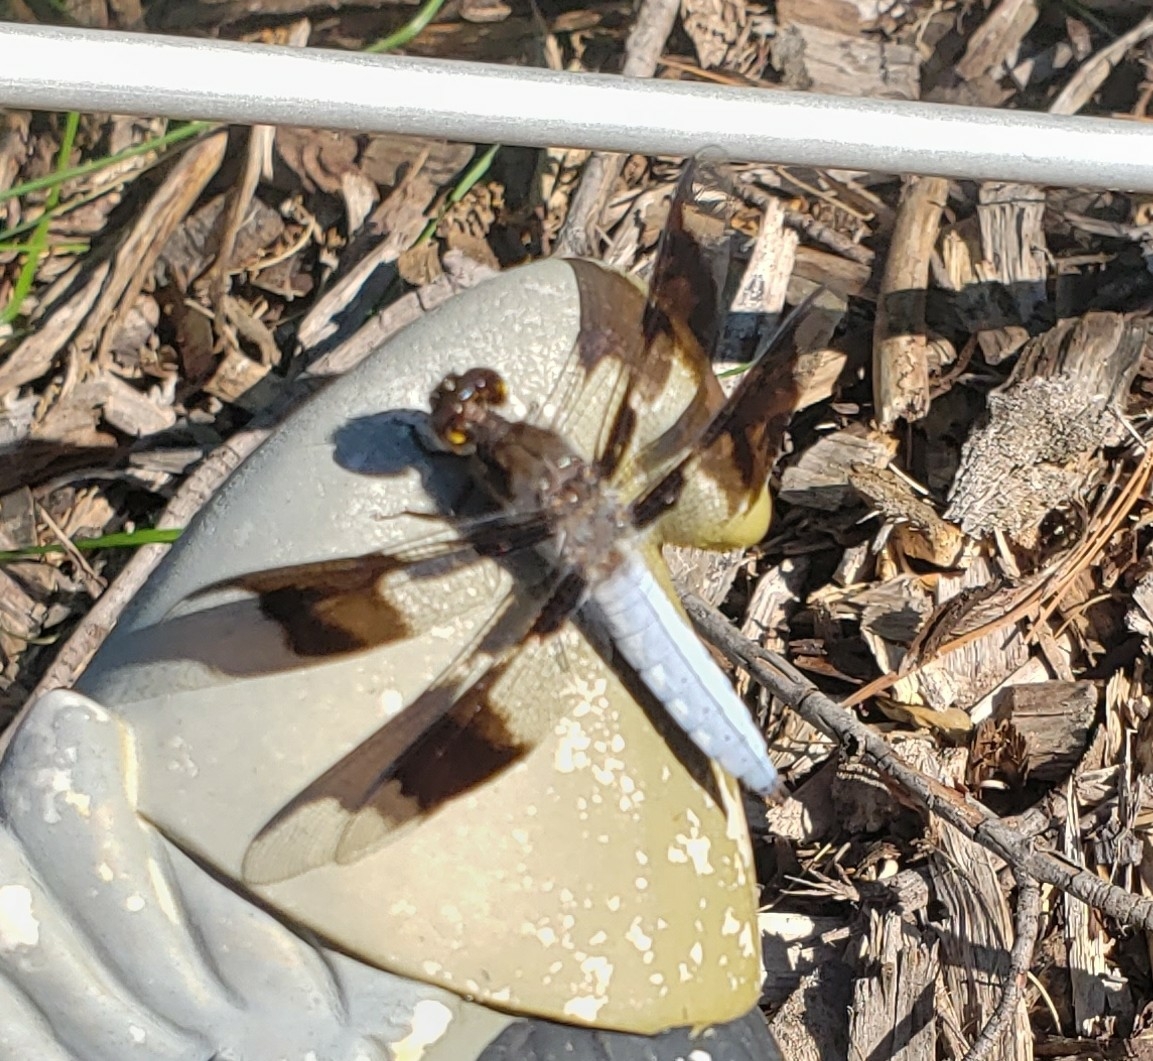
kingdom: Animalia
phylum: Arthropoda
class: Insecta
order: Odonata
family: Libellulidae
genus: Plathemis
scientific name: Plathemis lydia
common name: Common whitetail
